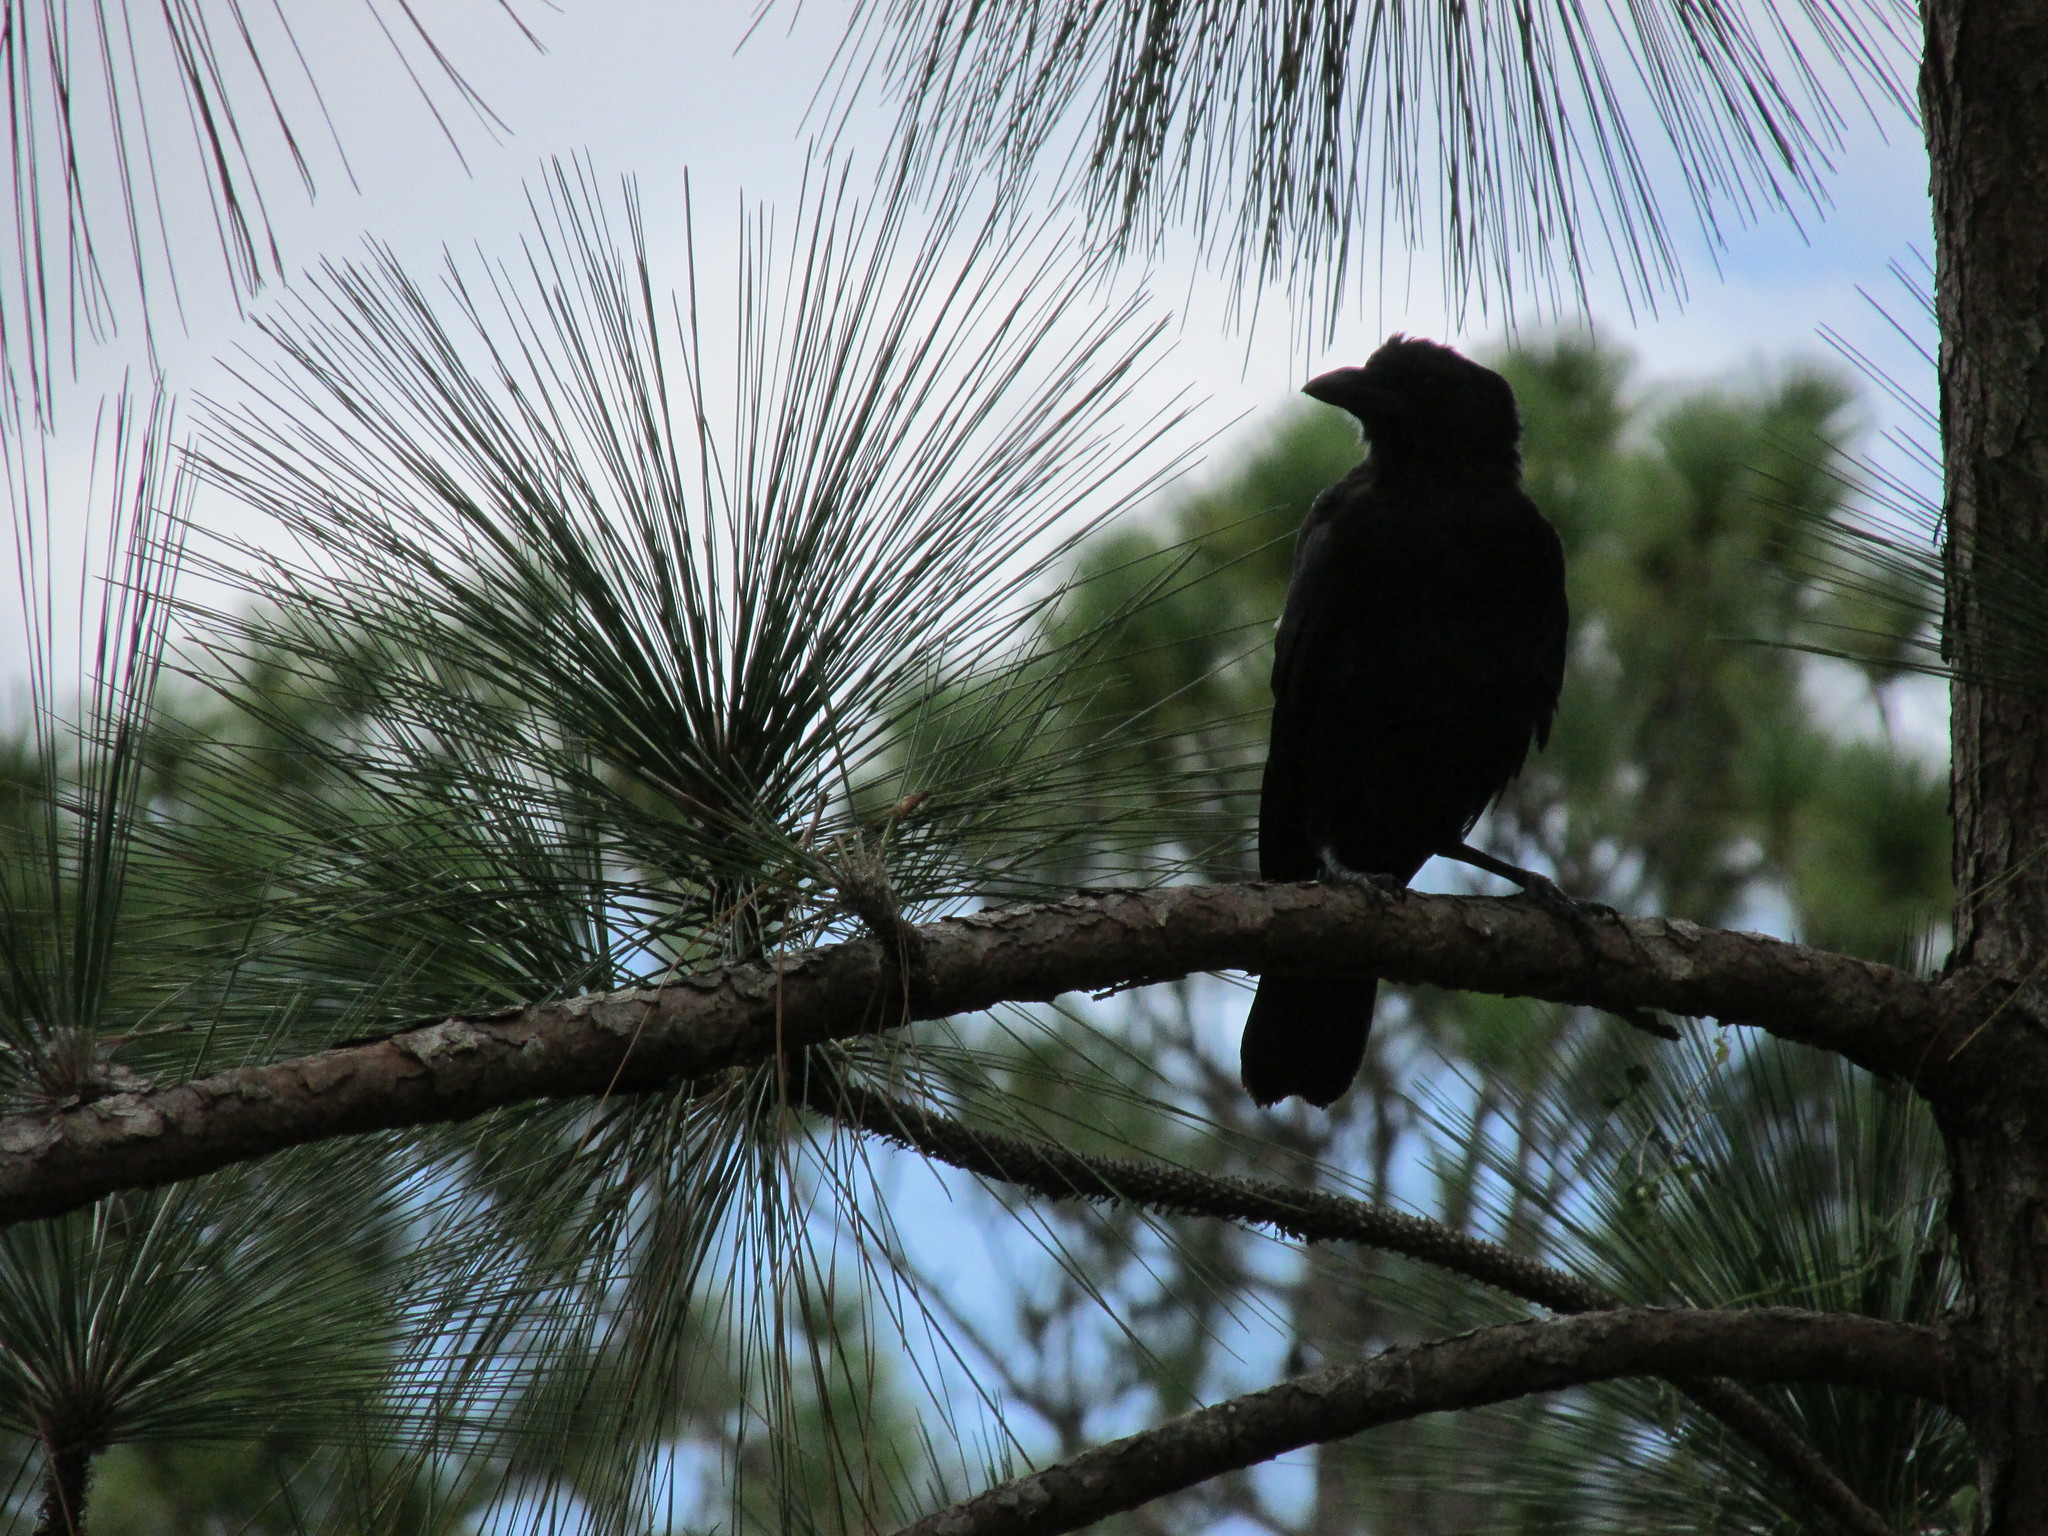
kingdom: Animalia
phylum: Chordata
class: Aves
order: Passeriformes
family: Corvidae
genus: Corvus
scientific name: Corvus
